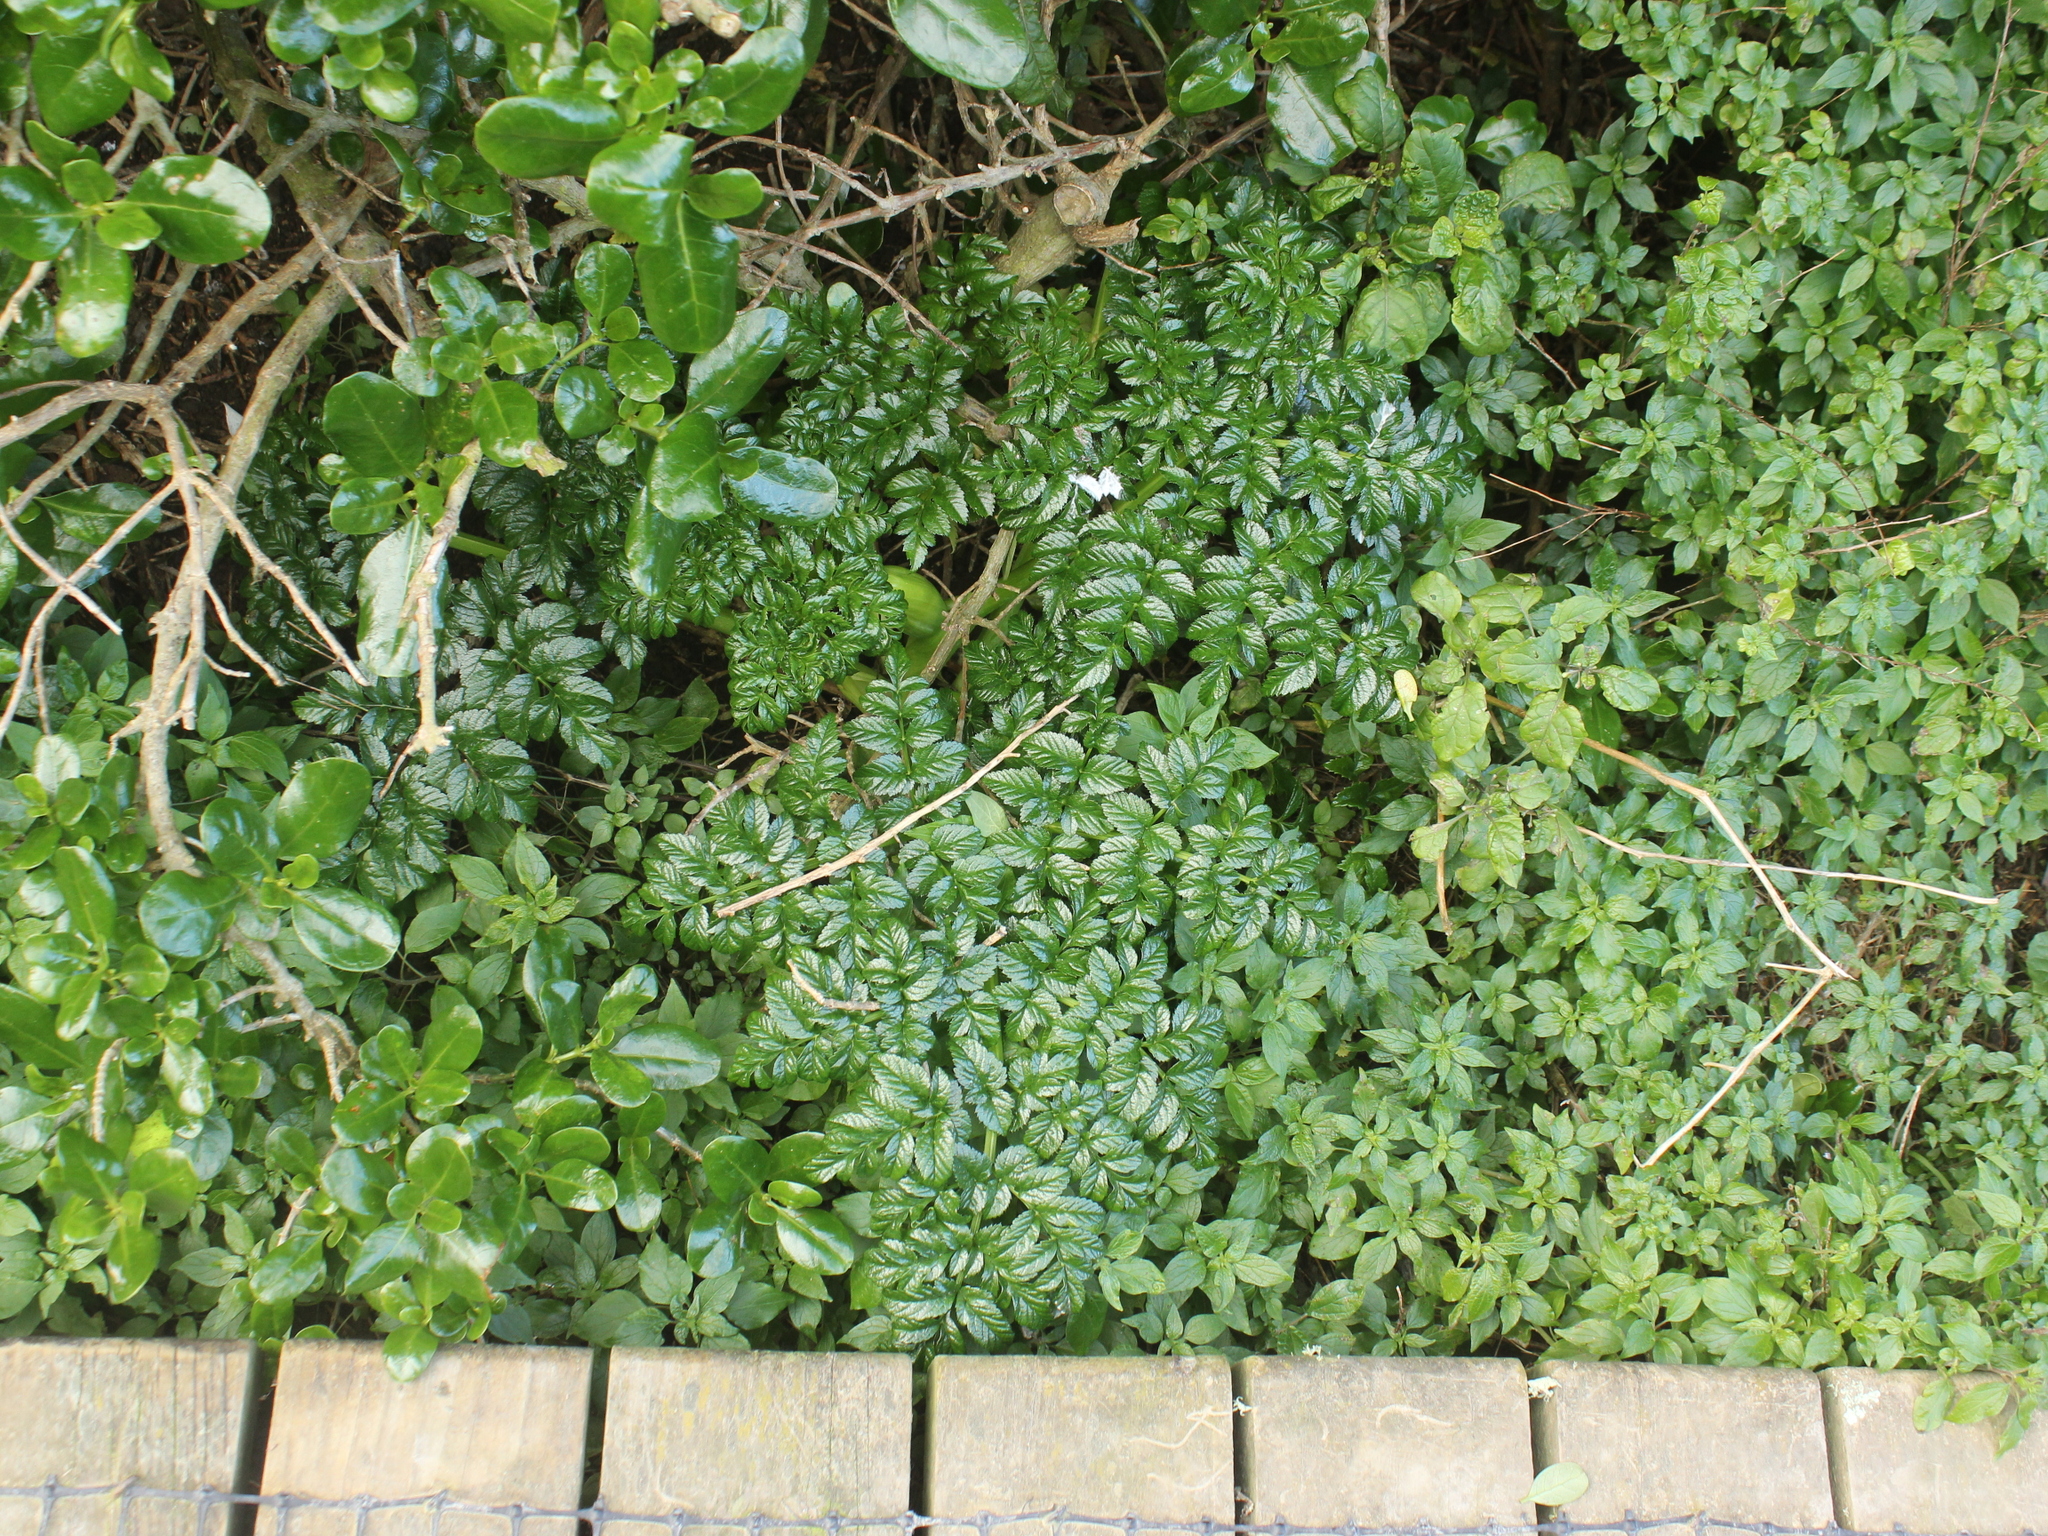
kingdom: Plantae
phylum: Tracheophyta
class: Magnoliopsida
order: Apiales
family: Apiaceae
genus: Angelica
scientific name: Angelica pachycarpa
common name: Portuguese angelica
